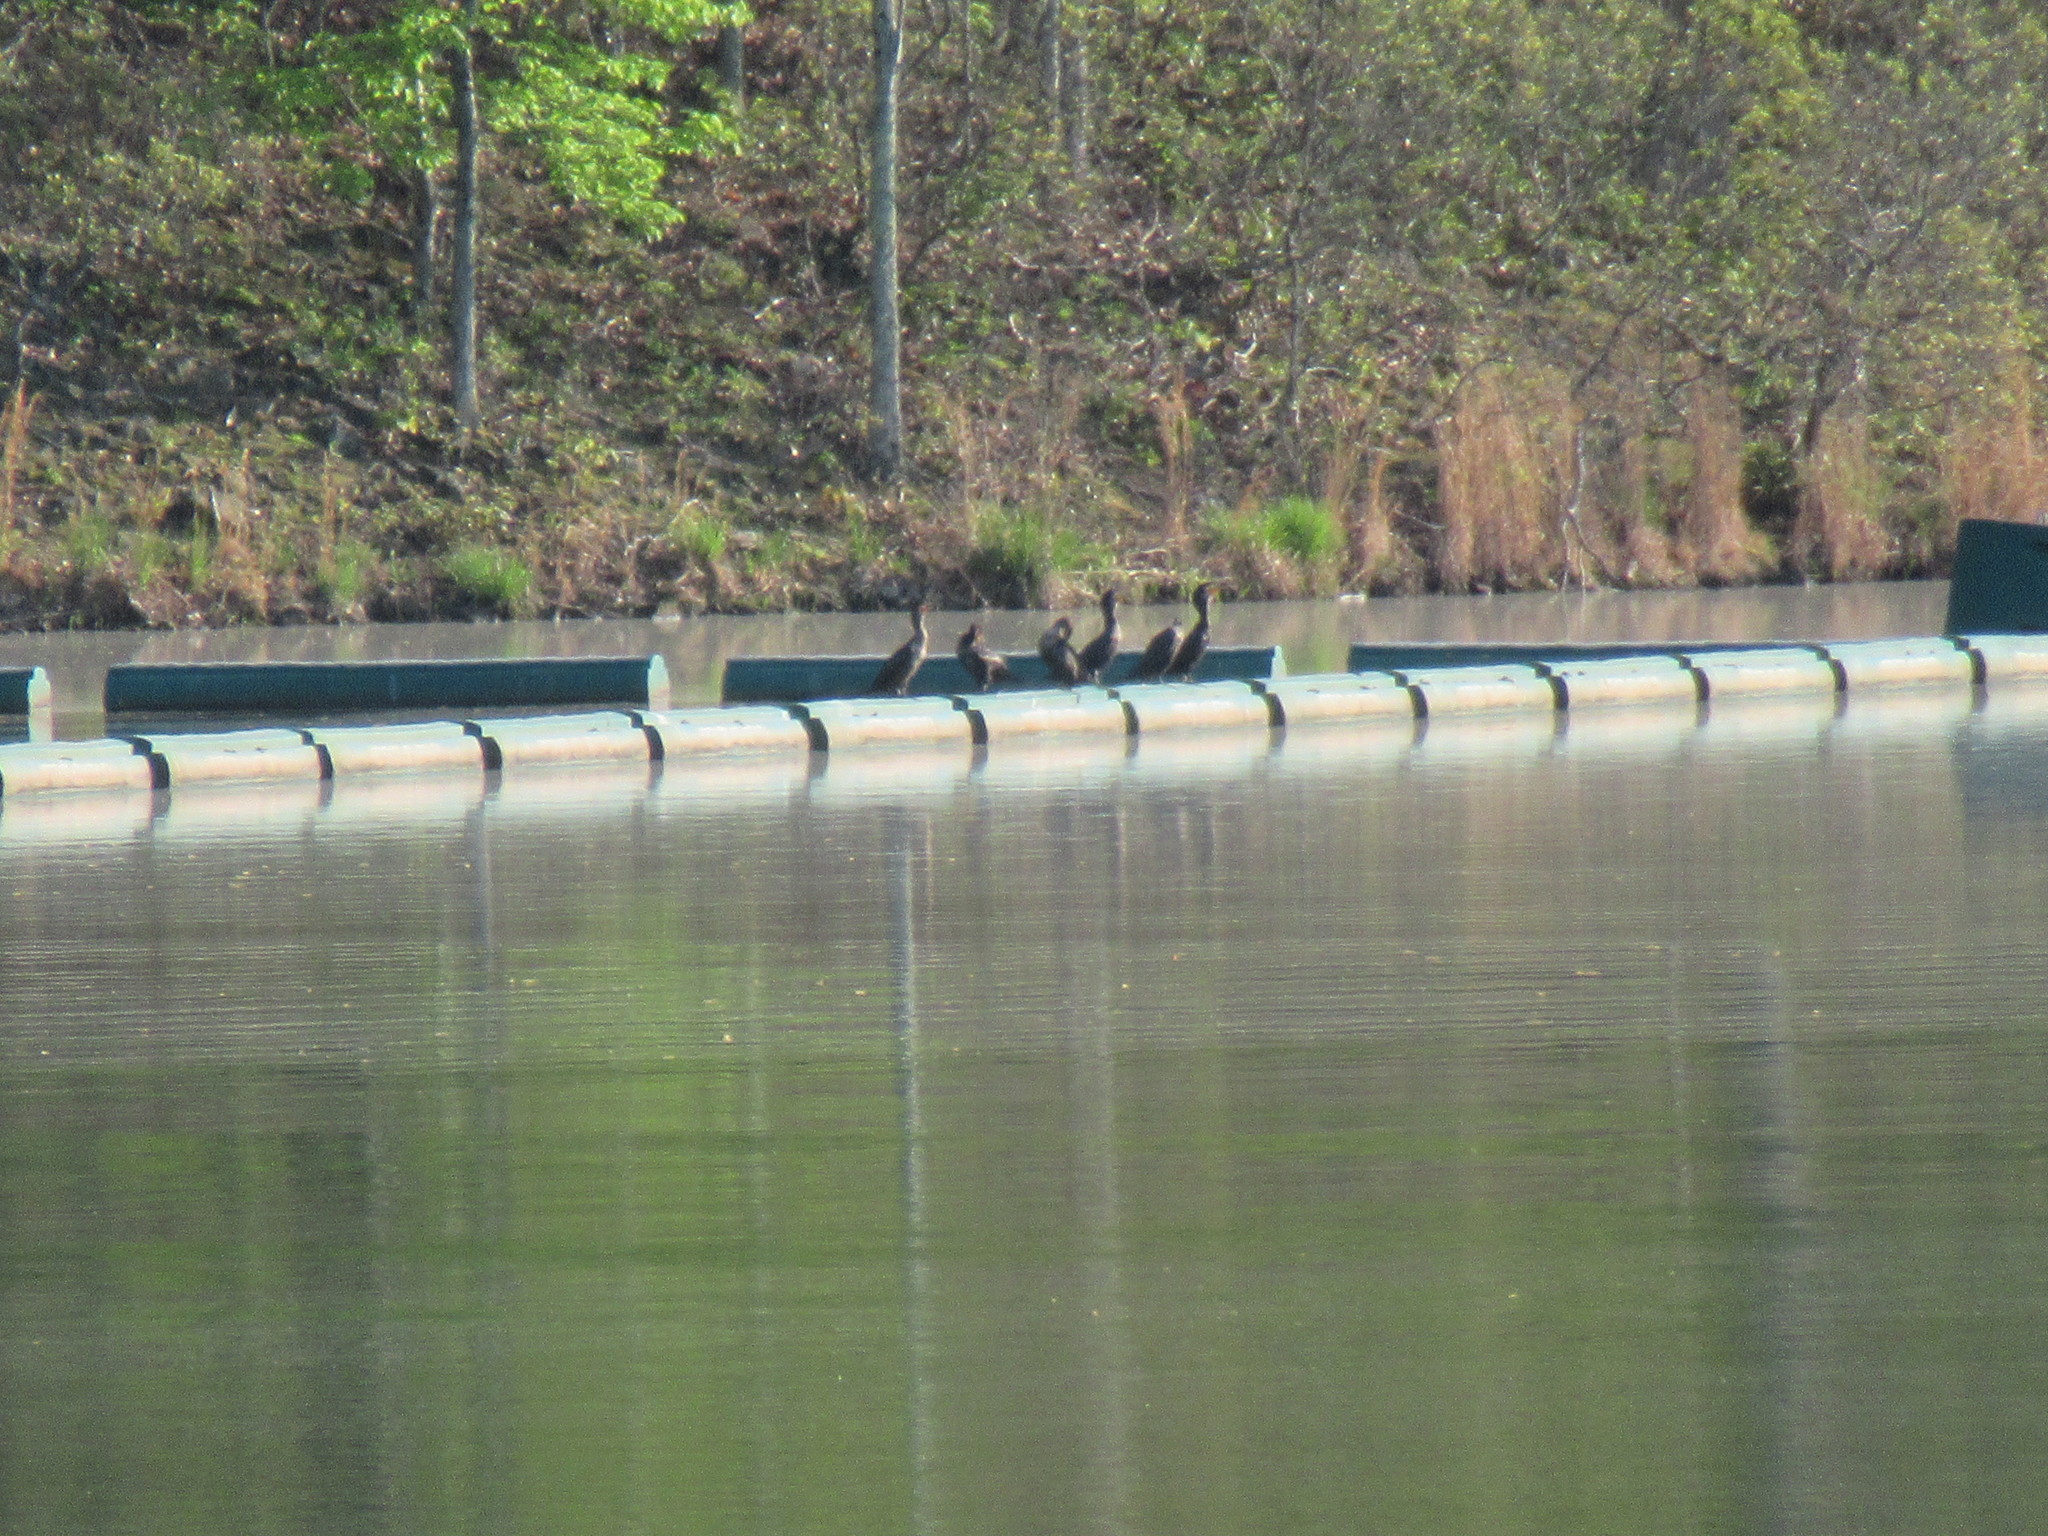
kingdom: Animalia
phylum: Chordata
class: Aves
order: Suliformes
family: Phalacrocoracidae
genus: Phalacrocorax
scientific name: Phalacrocorax auritus
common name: Double-crested cormorant
